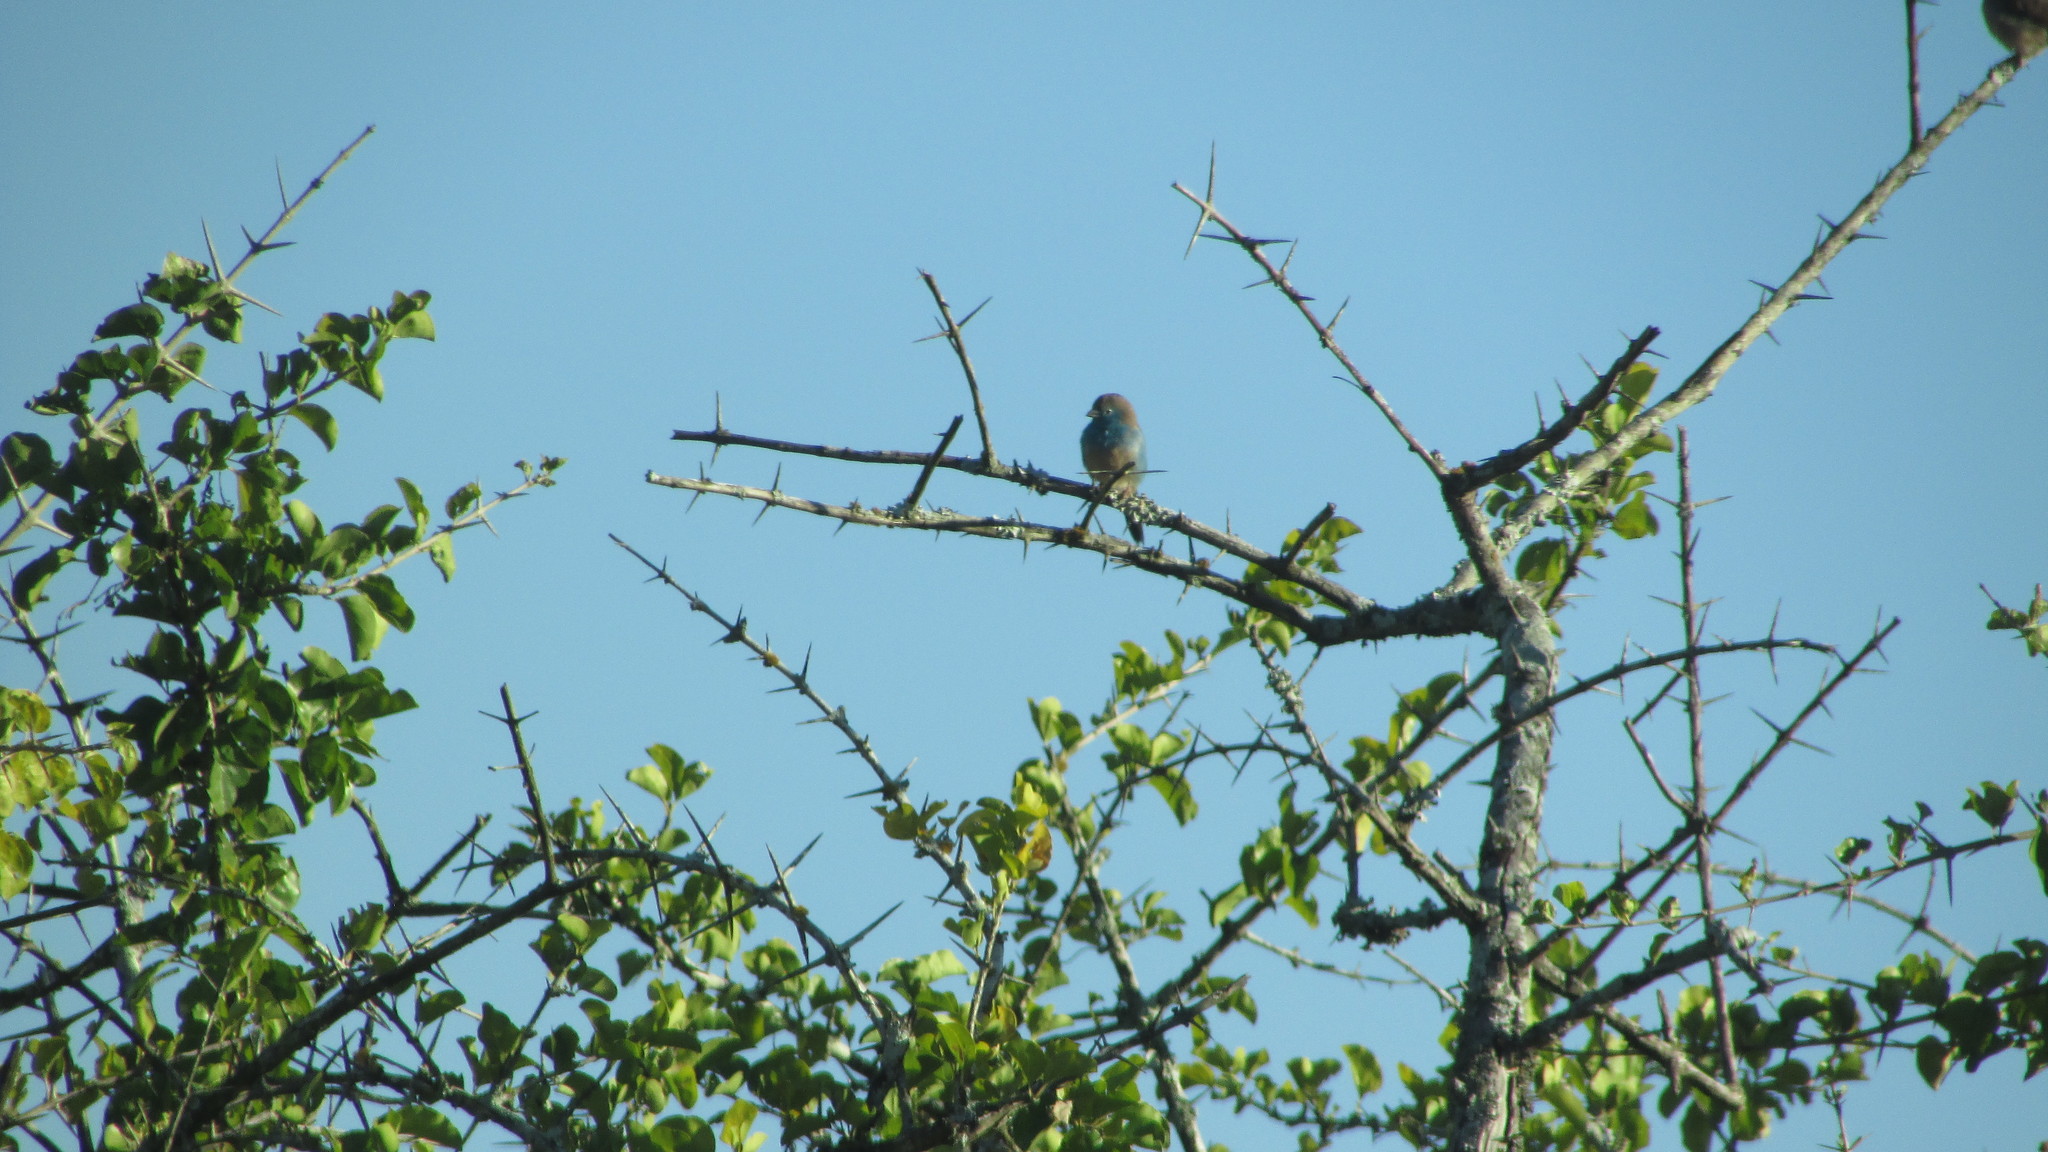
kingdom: Animalia
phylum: Chordata
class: Aves
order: Passeriformes
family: Estrildidae
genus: Uraeginthus
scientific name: Uraeginthus angolensis
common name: Blue waxbill
